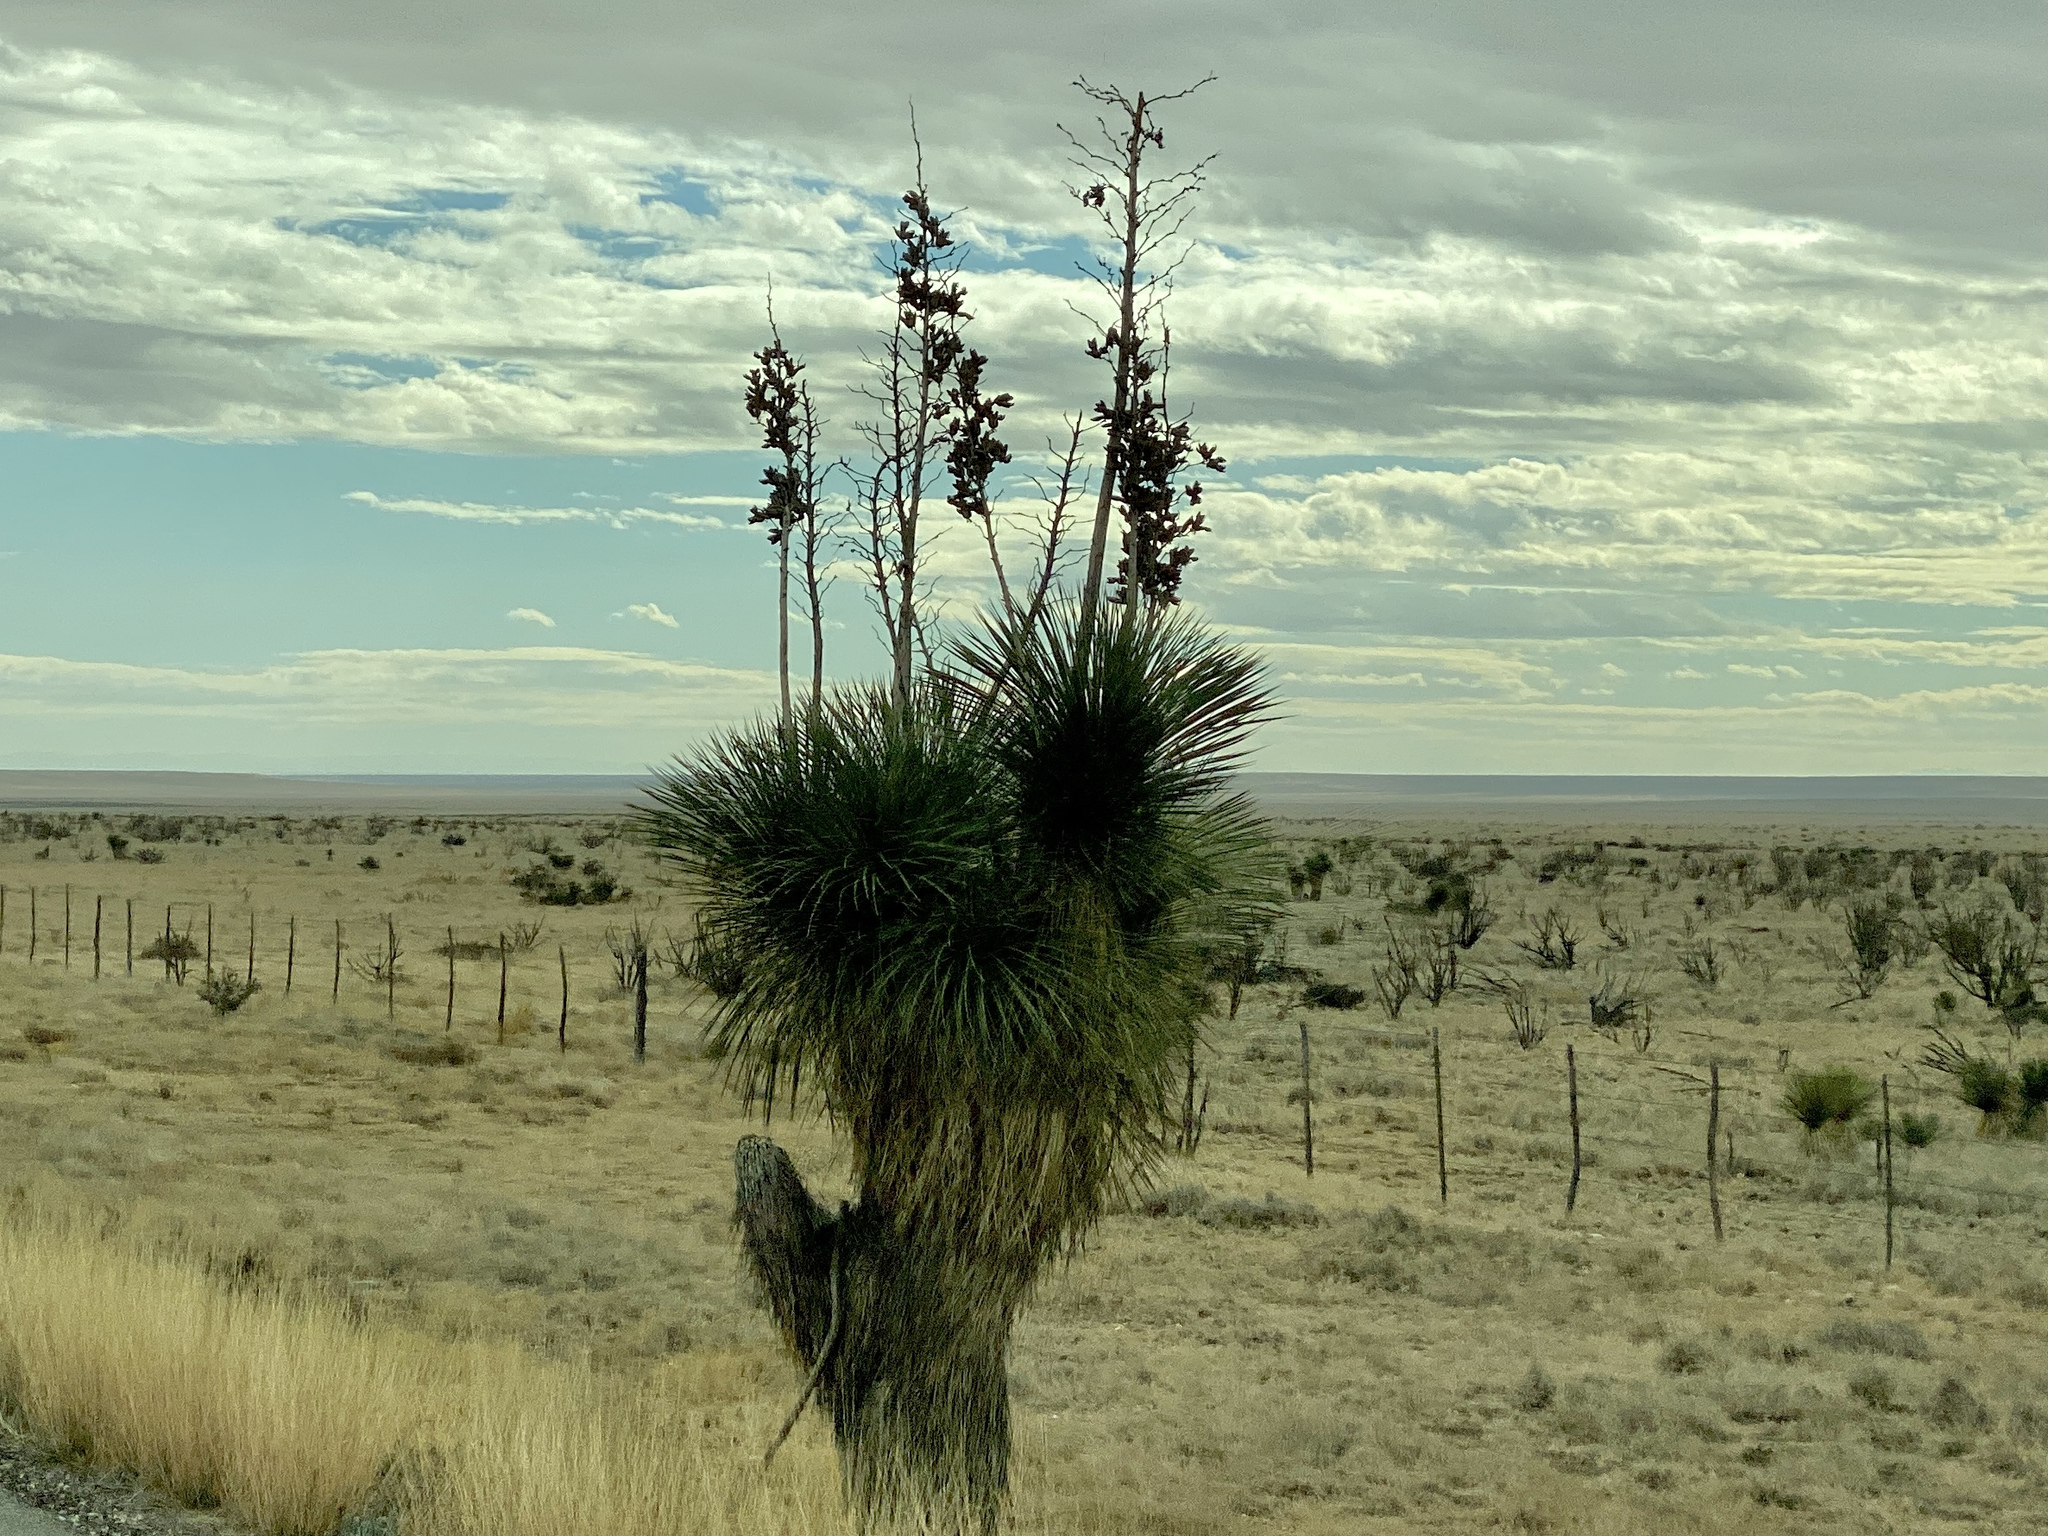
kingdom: Plantae
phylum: Tracheophyta
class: Liliopsida
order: Asparagales
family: Asparagaceae
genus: Yucca
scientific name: Yucca elata
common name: Palmella
